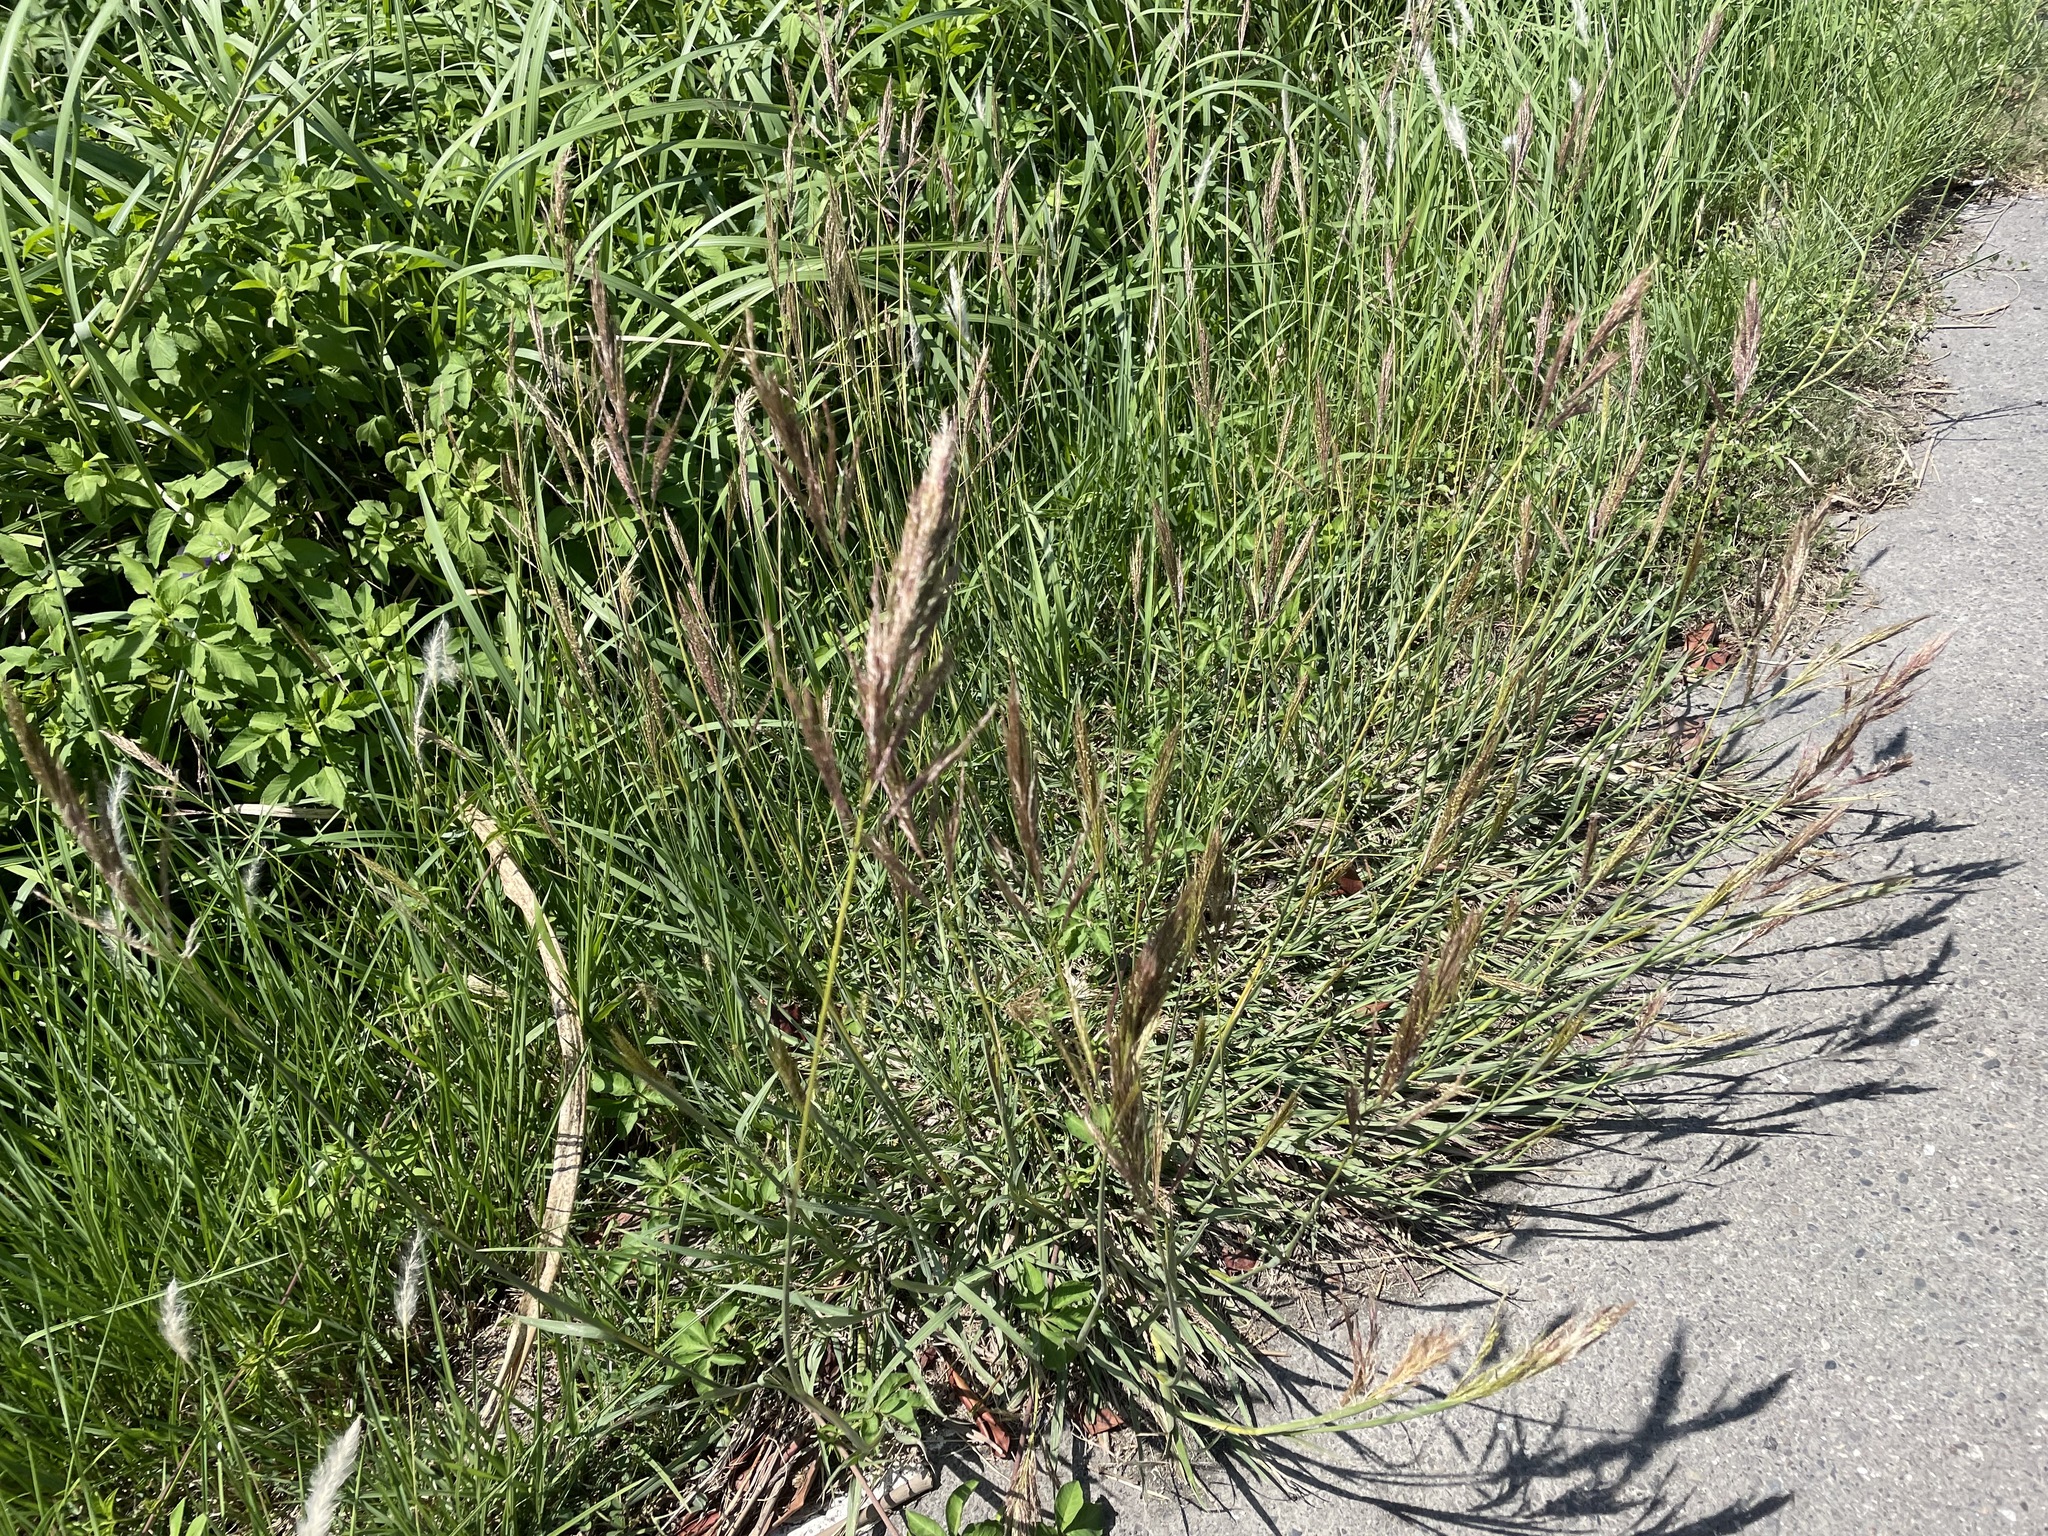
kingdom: Plantae
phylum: Tracheophyta
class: Liliopsida
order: Poales
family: Poaceae
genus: Bothriochloa
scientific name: Bothriochloa glabra
